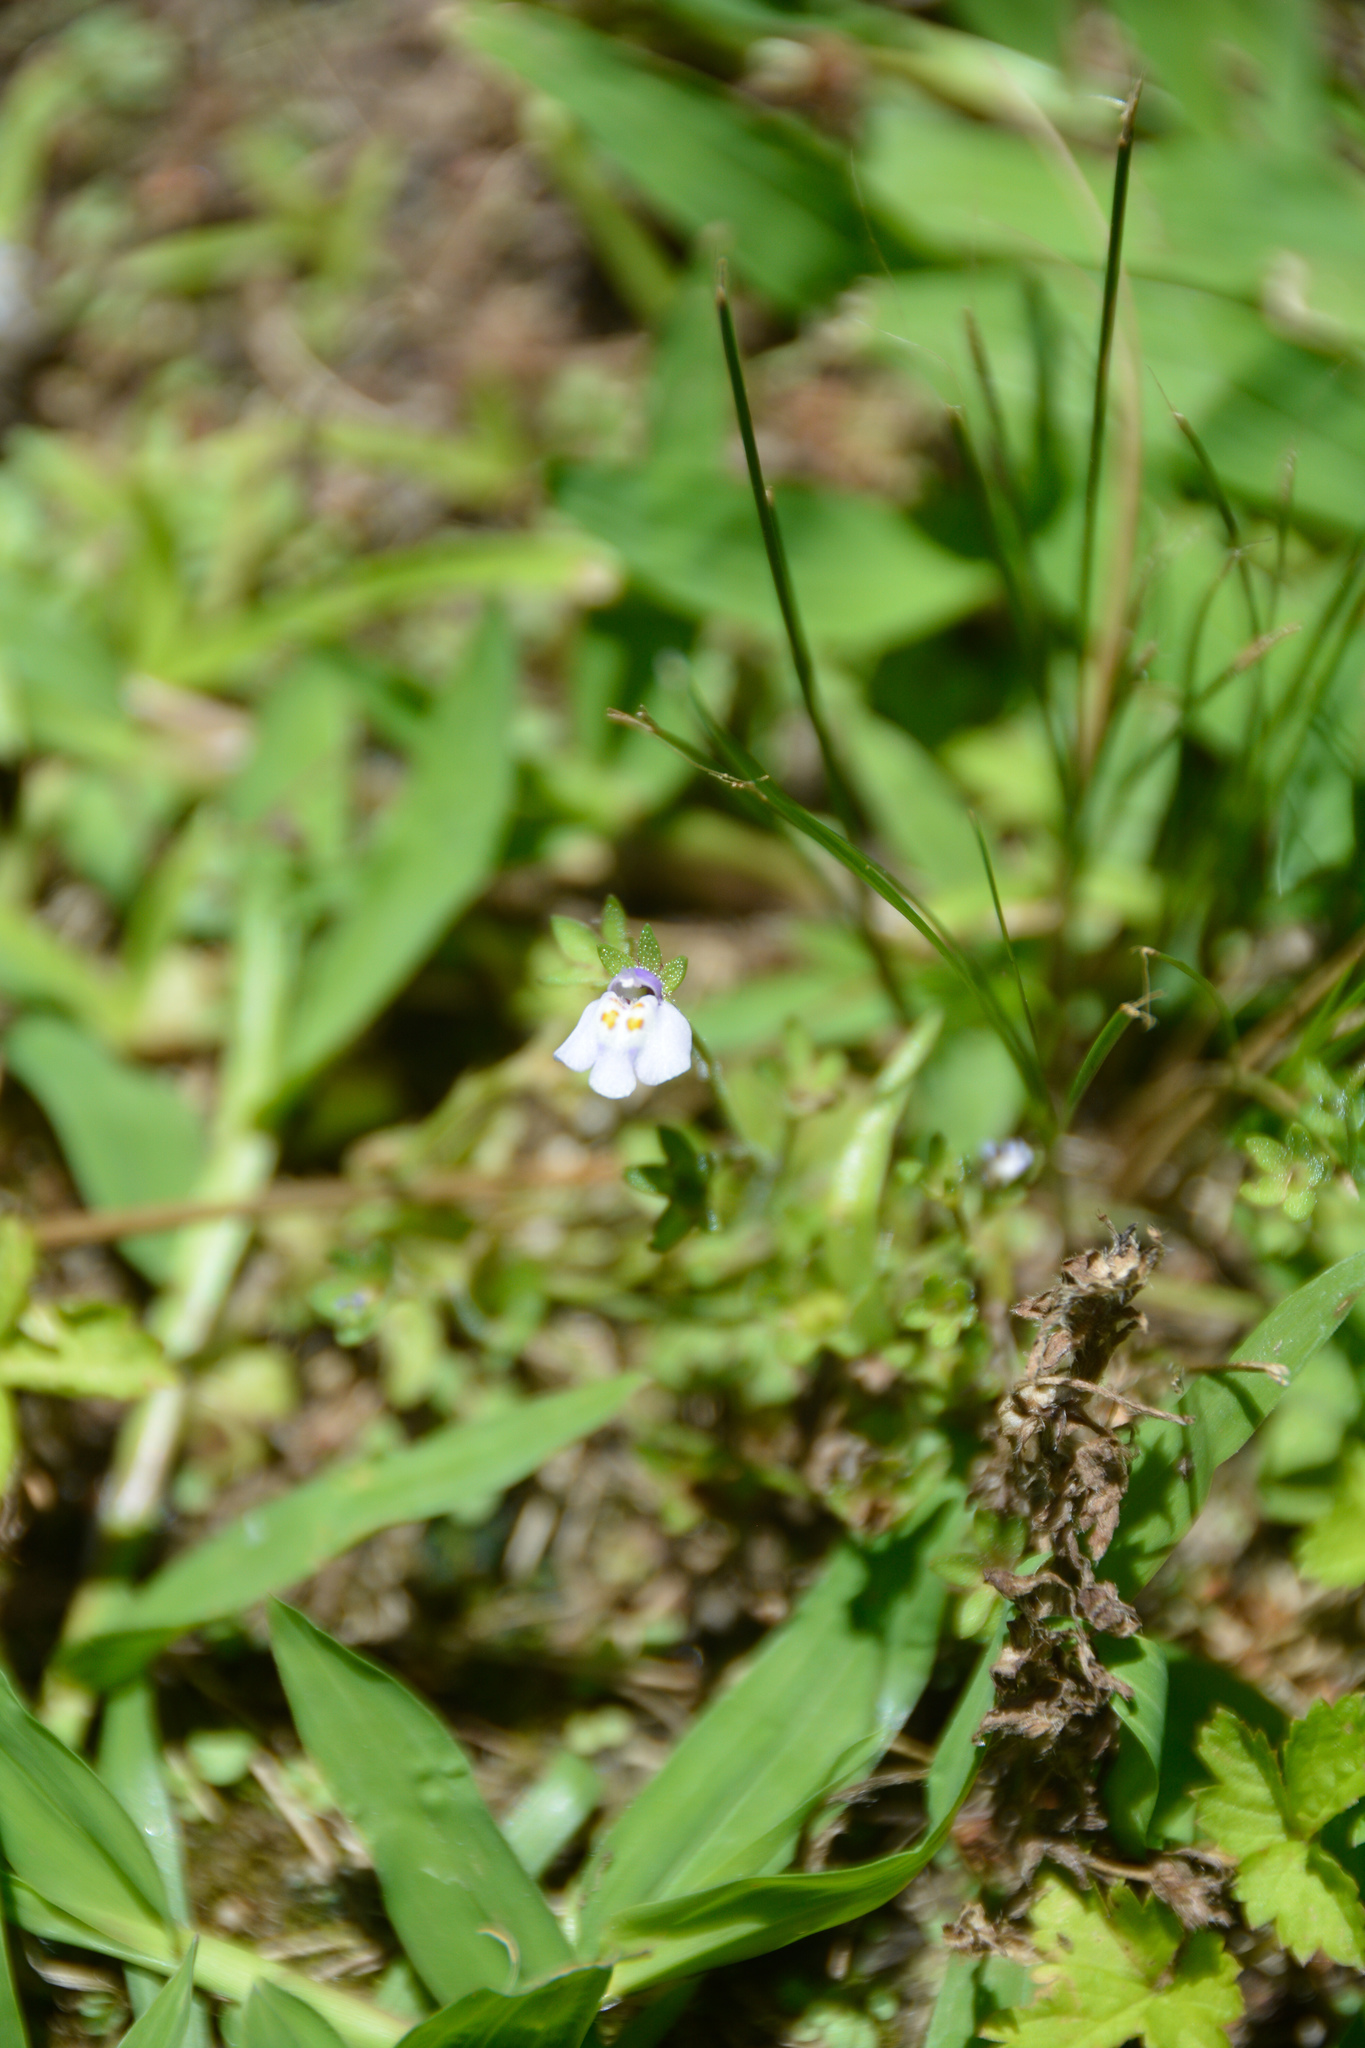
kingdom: Plantae
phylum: Tracheophyta
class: Magnoliopsida
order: Lamiales
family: Mazaceae
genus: Mazus
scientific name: Mazus pumilus
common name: Japanese mazus
